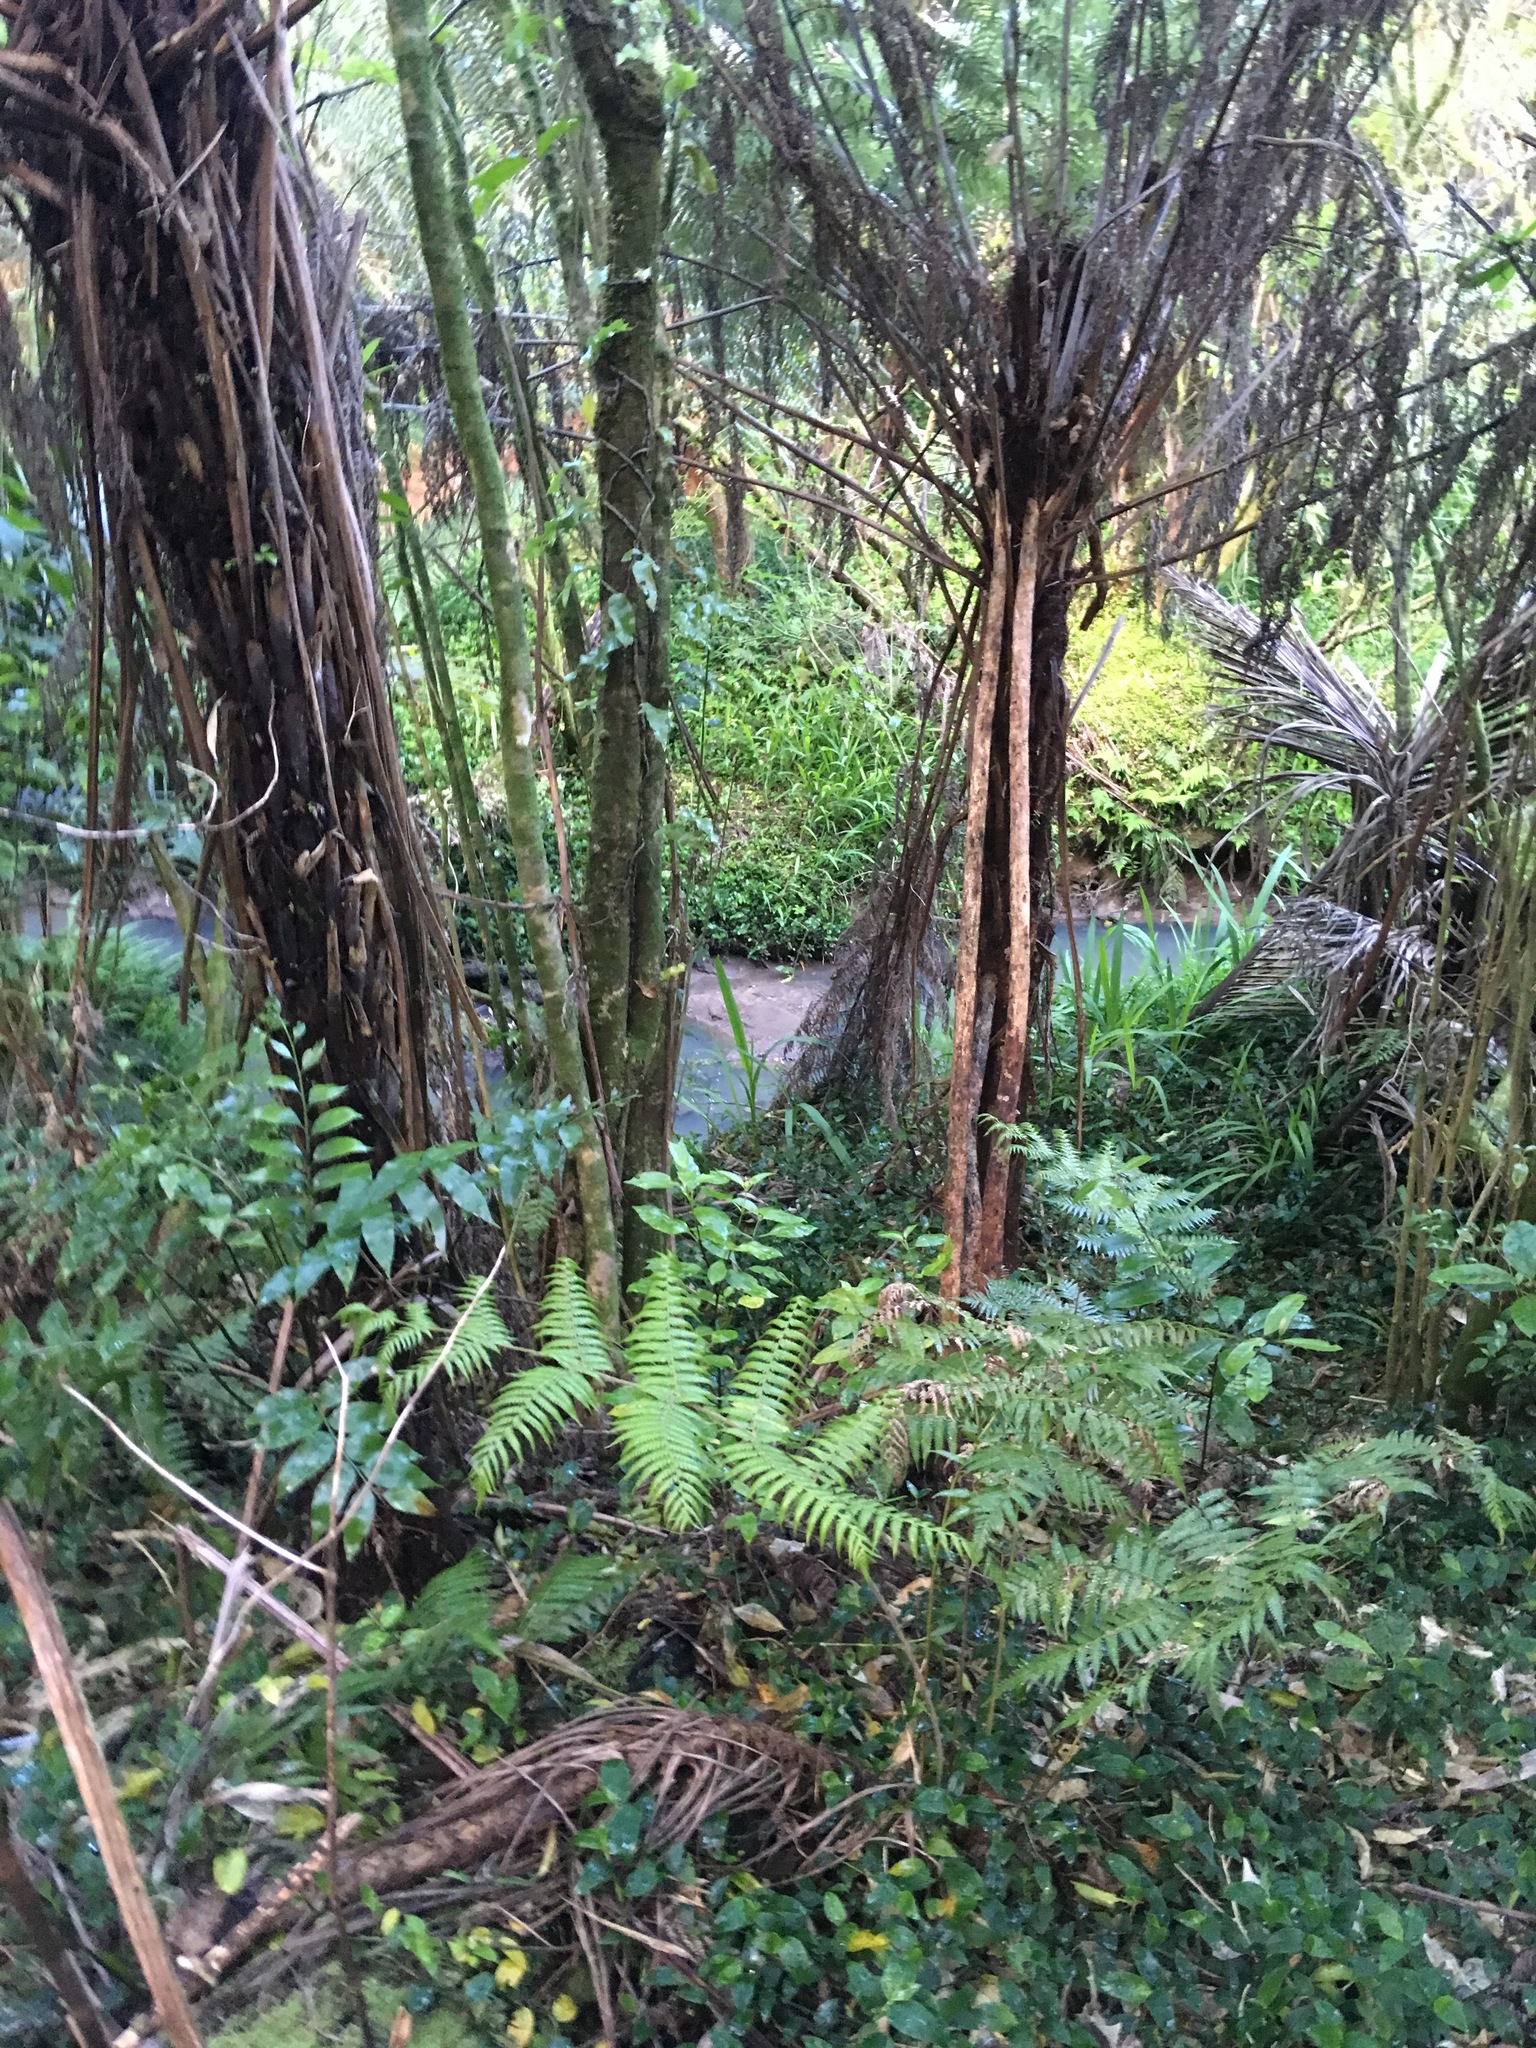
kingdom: Plantae
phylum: Tracheophyta
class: Polypodiopsida
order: Polypodiales
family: Aspleniaceae
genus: Asplenium
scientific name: Asplenium oblongifolium
